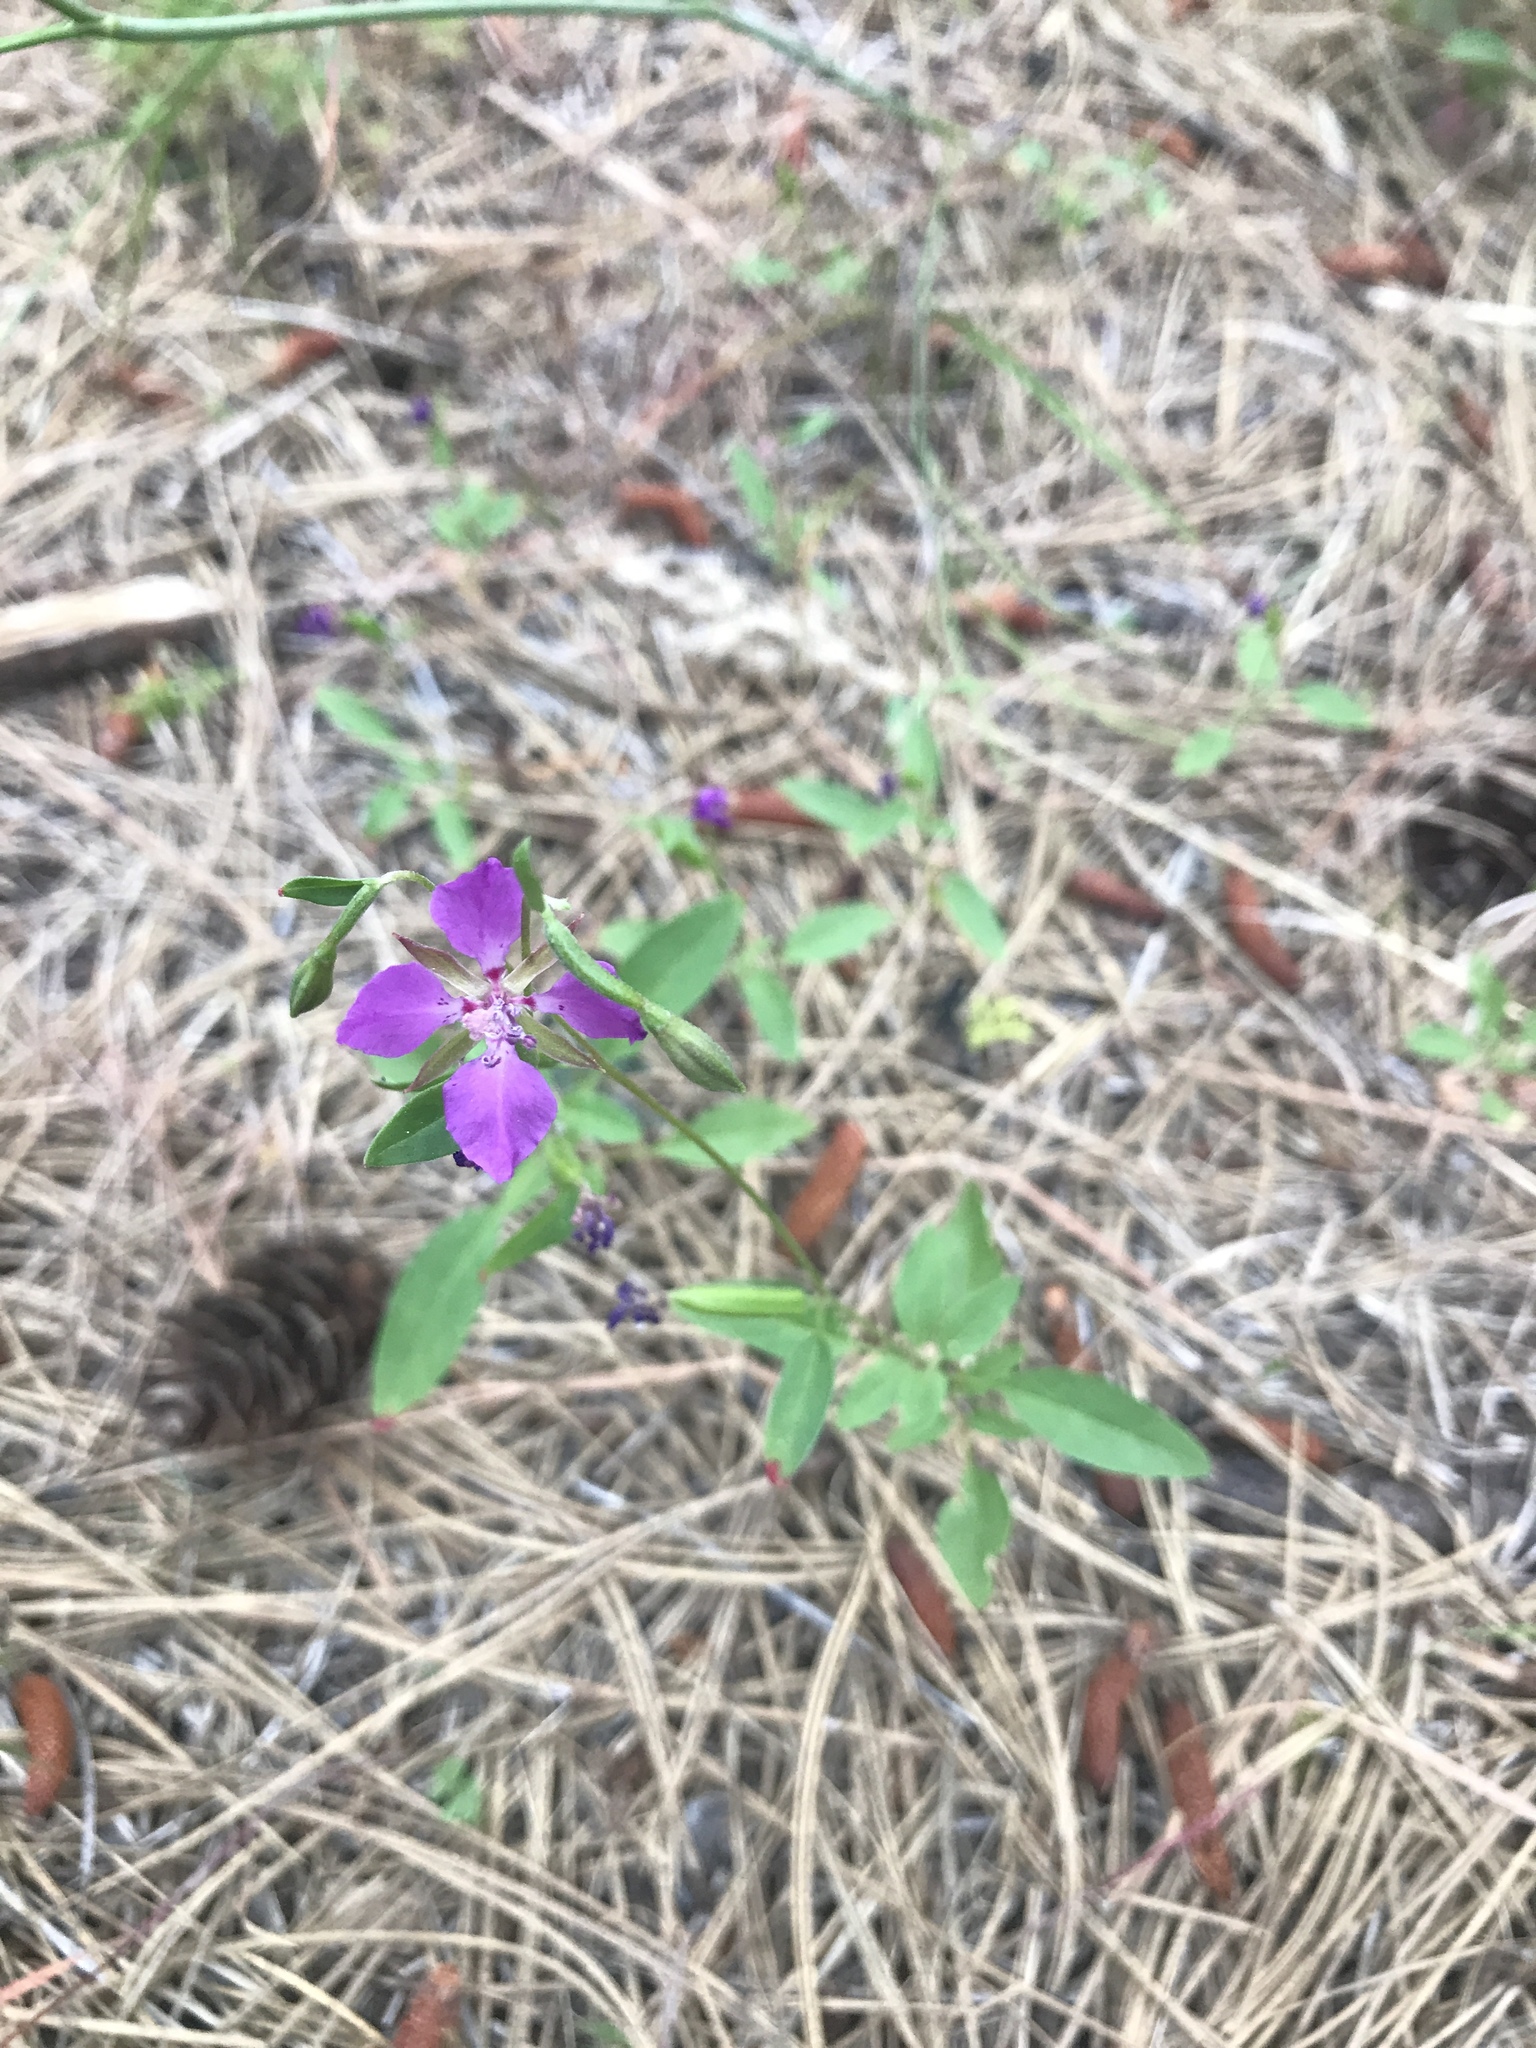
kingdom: Plantae
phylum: Tracheophyta
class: Magnoliopsida
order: Myrtales
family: Onagraceae
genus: Clarkia
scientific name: Clarkia rhomboidea
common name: Broadleaf clarkia
